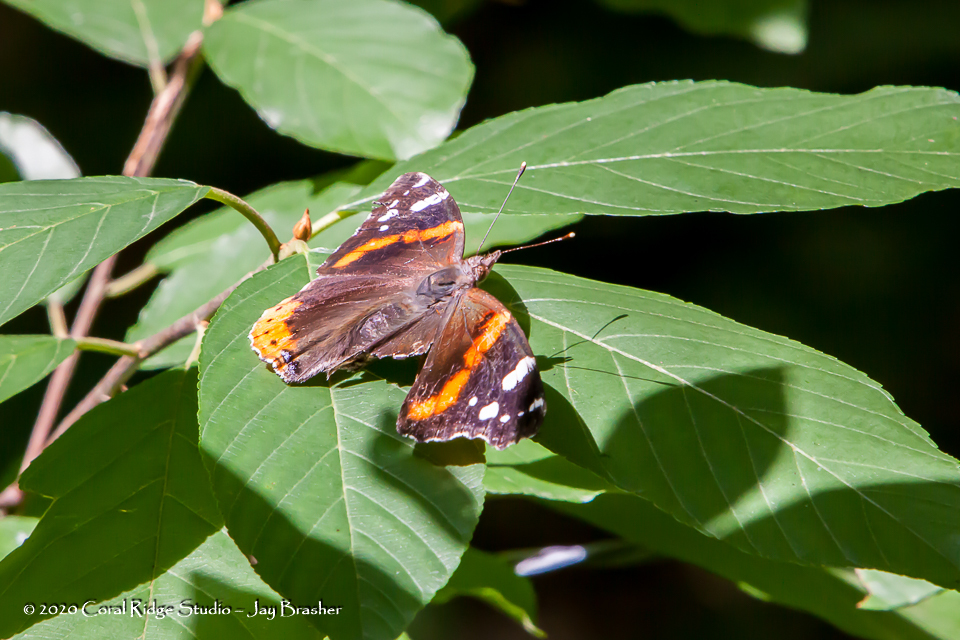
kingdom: Animalia
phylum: Arthropoda
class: Insecta
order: Lepidoptera
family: Nymphalidae
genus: Vanessa
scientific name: Vanessa atalanta
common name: Red admiral
